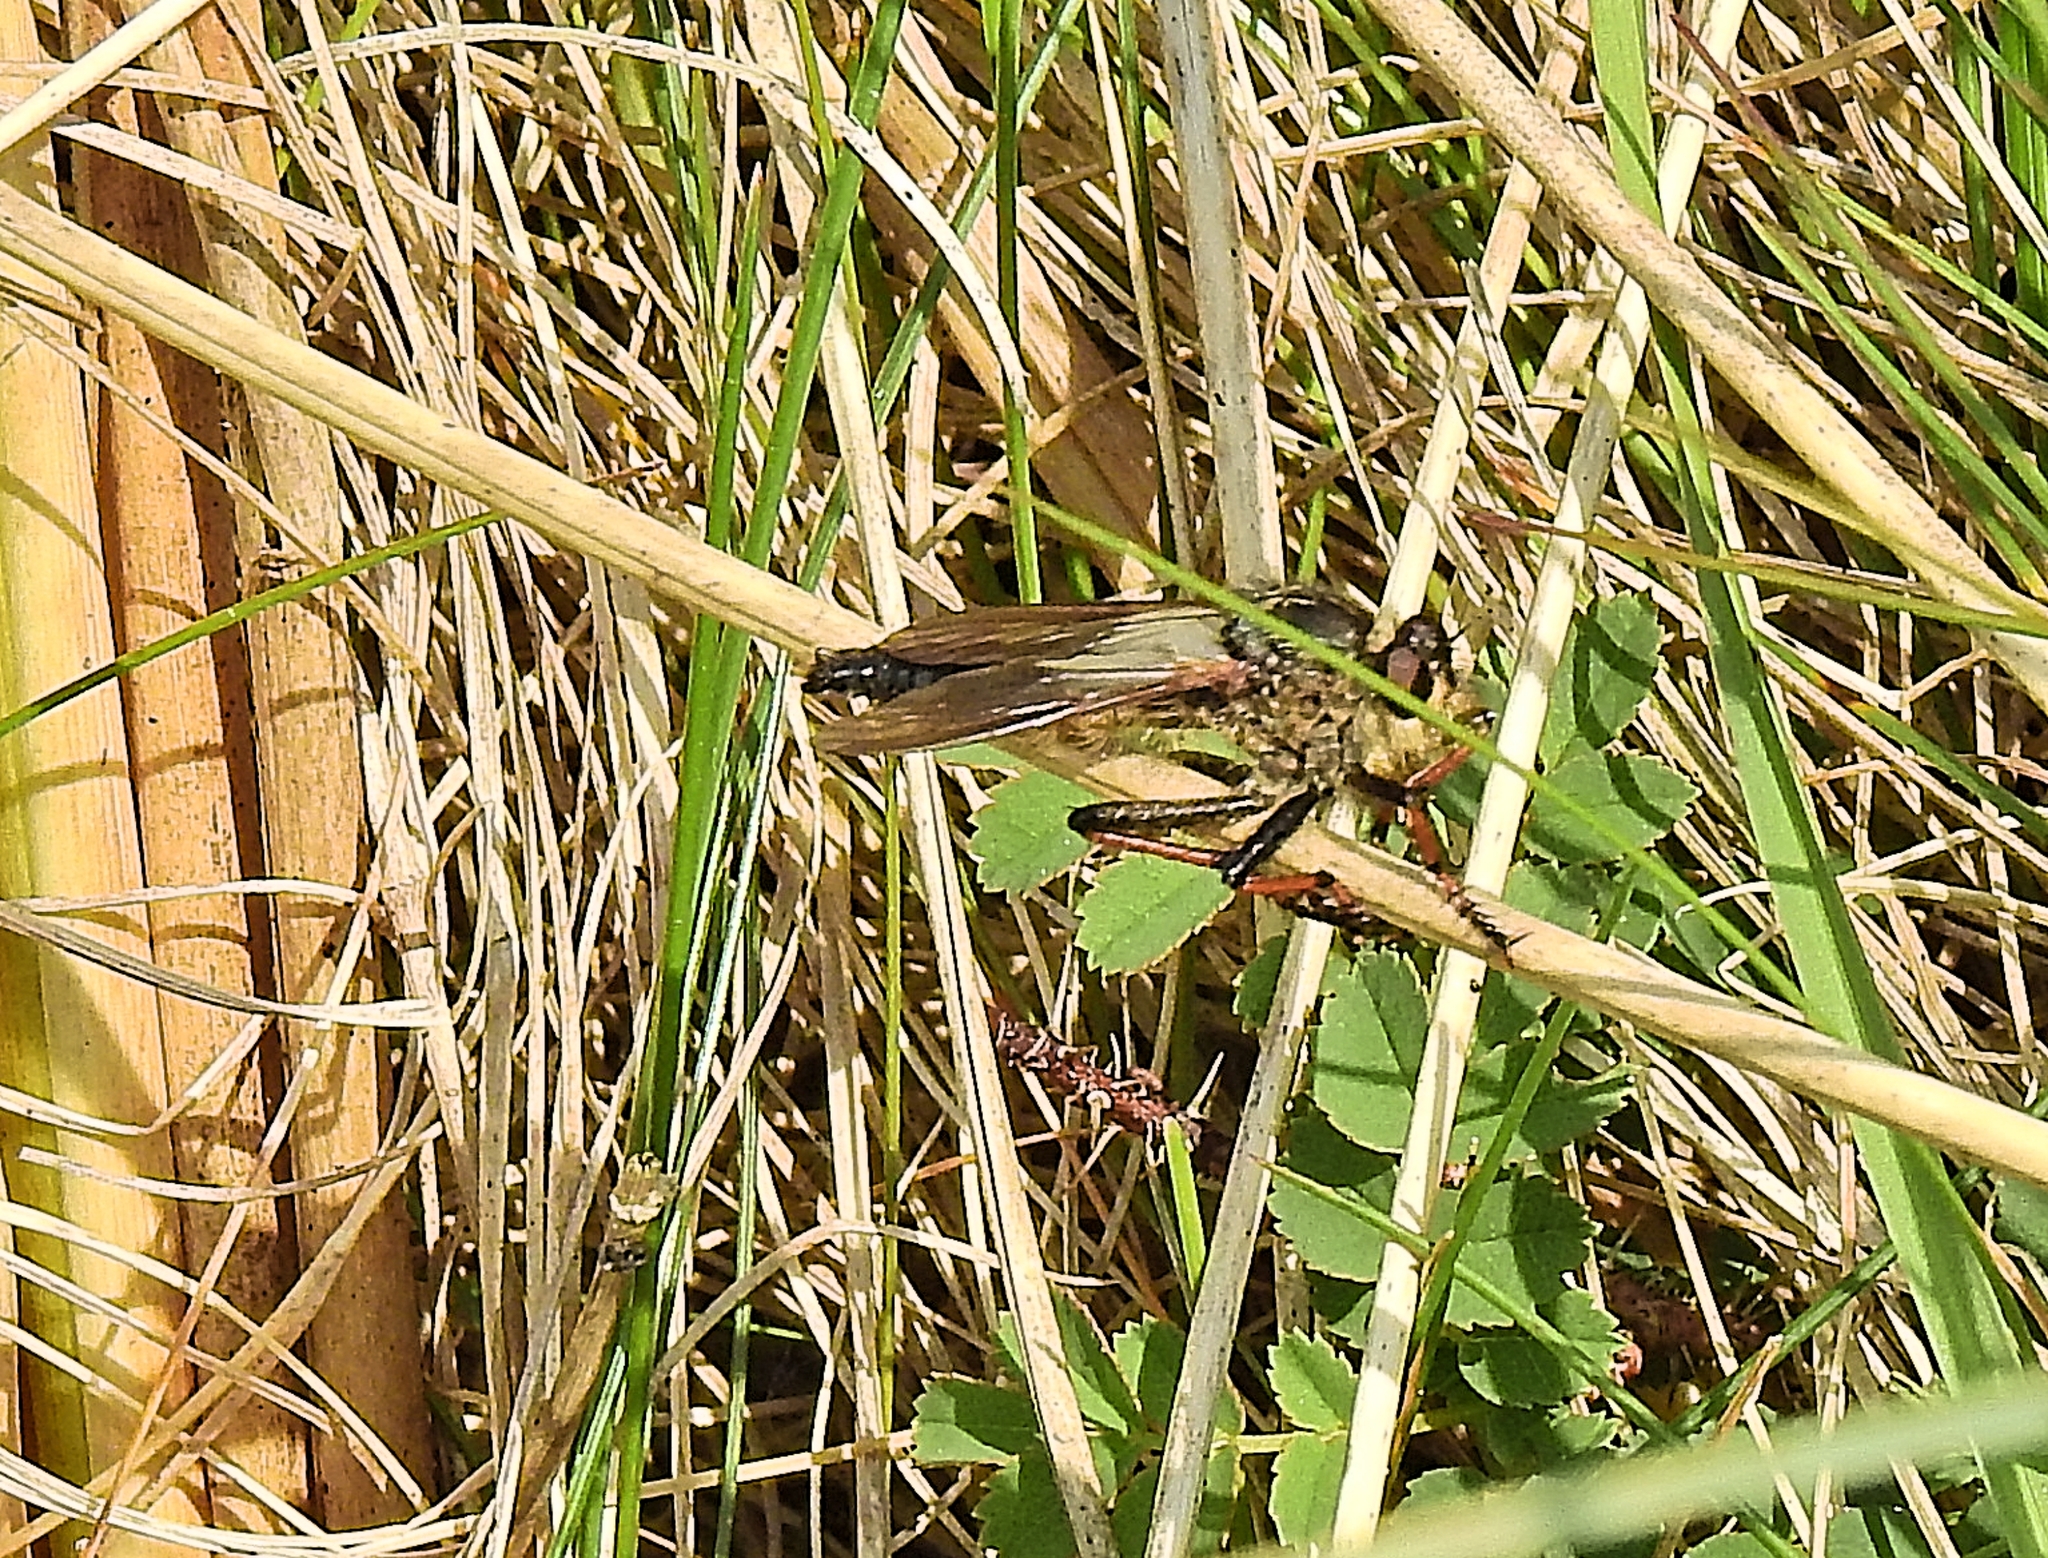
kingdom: Animalia
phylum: Arthropoda
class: Insecta
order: Diptera
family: Asilidae
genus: Pamponerus
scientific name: Pamponerus germanicus
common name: Pied-winged robberfly
